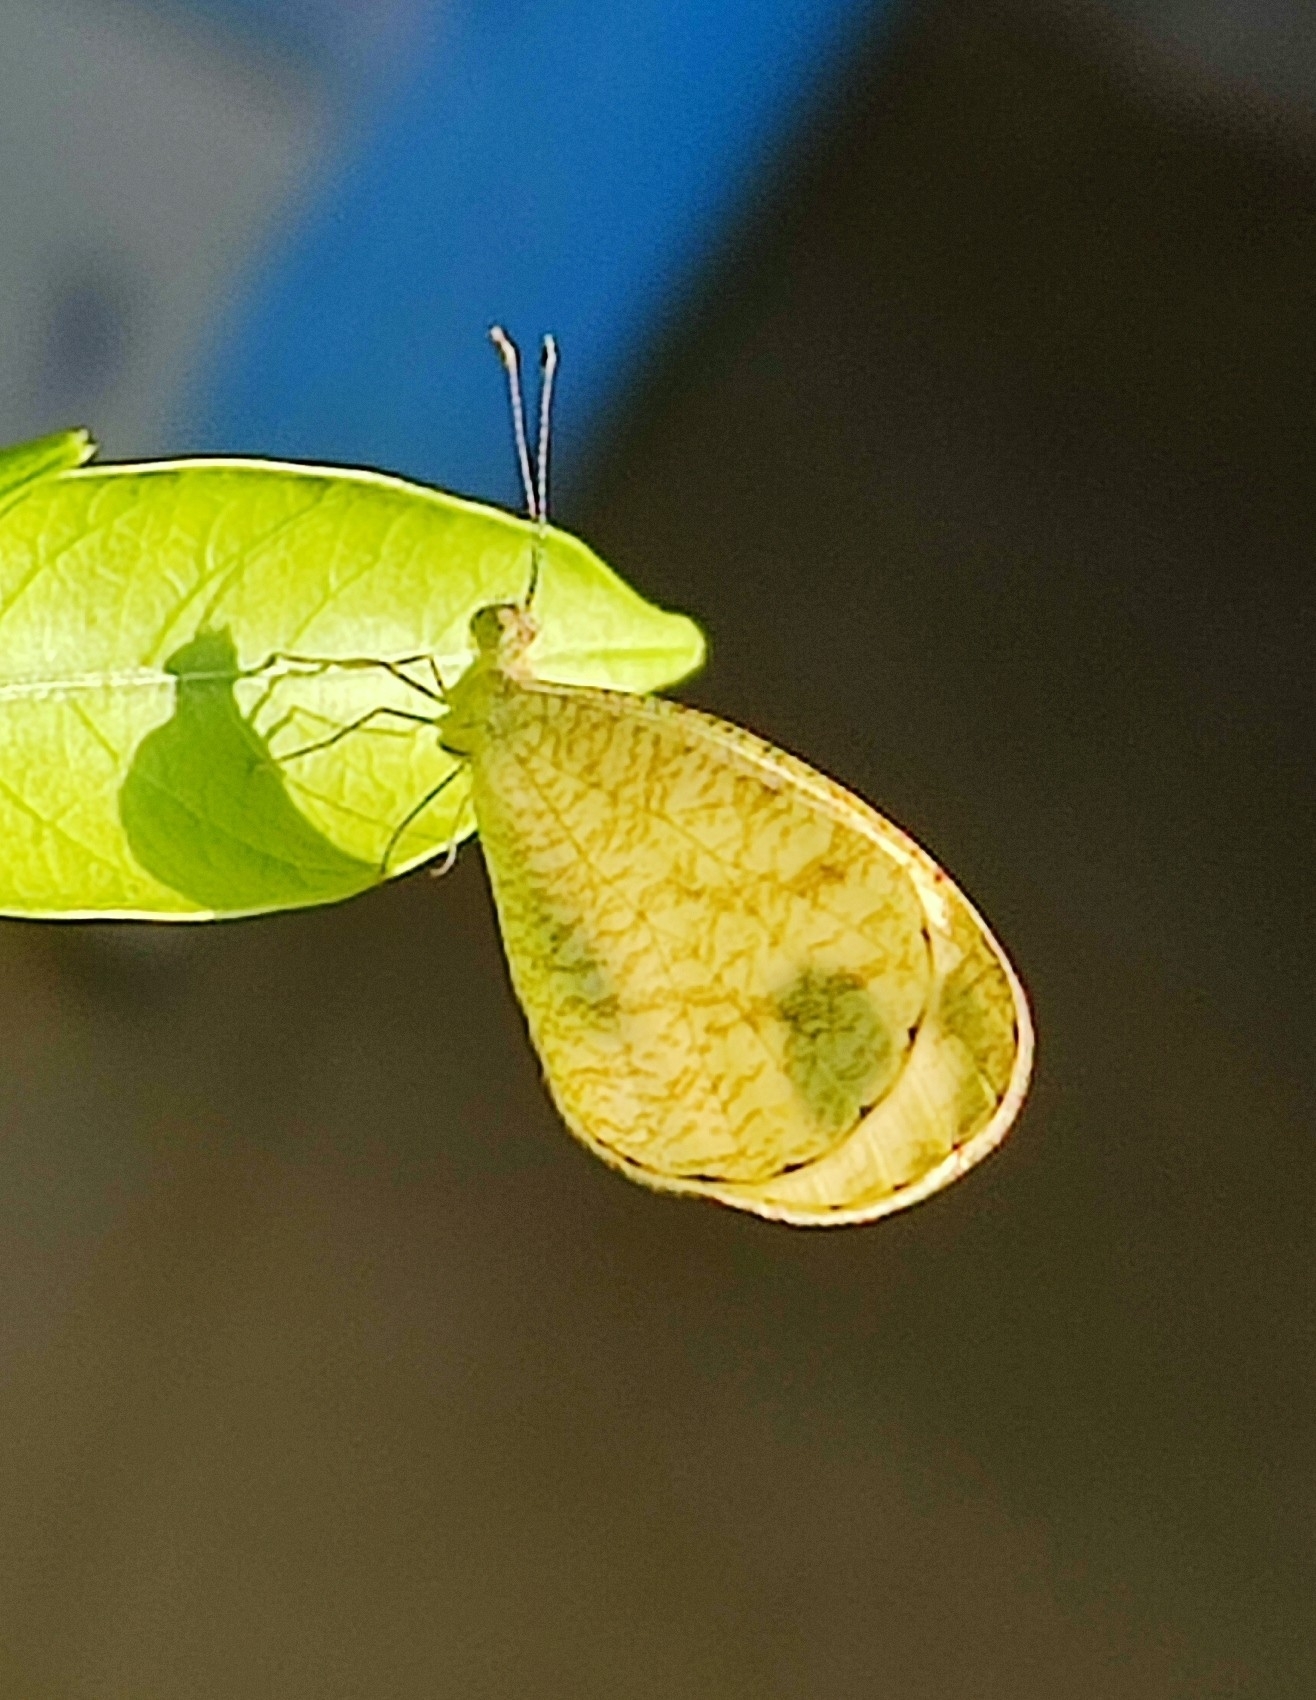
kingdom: Animalia
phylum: Arthropoda
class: Insecta
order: Lepidoptera
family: Pieridae
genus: Leptosia
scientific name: Leptosia nina
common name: Psyche
